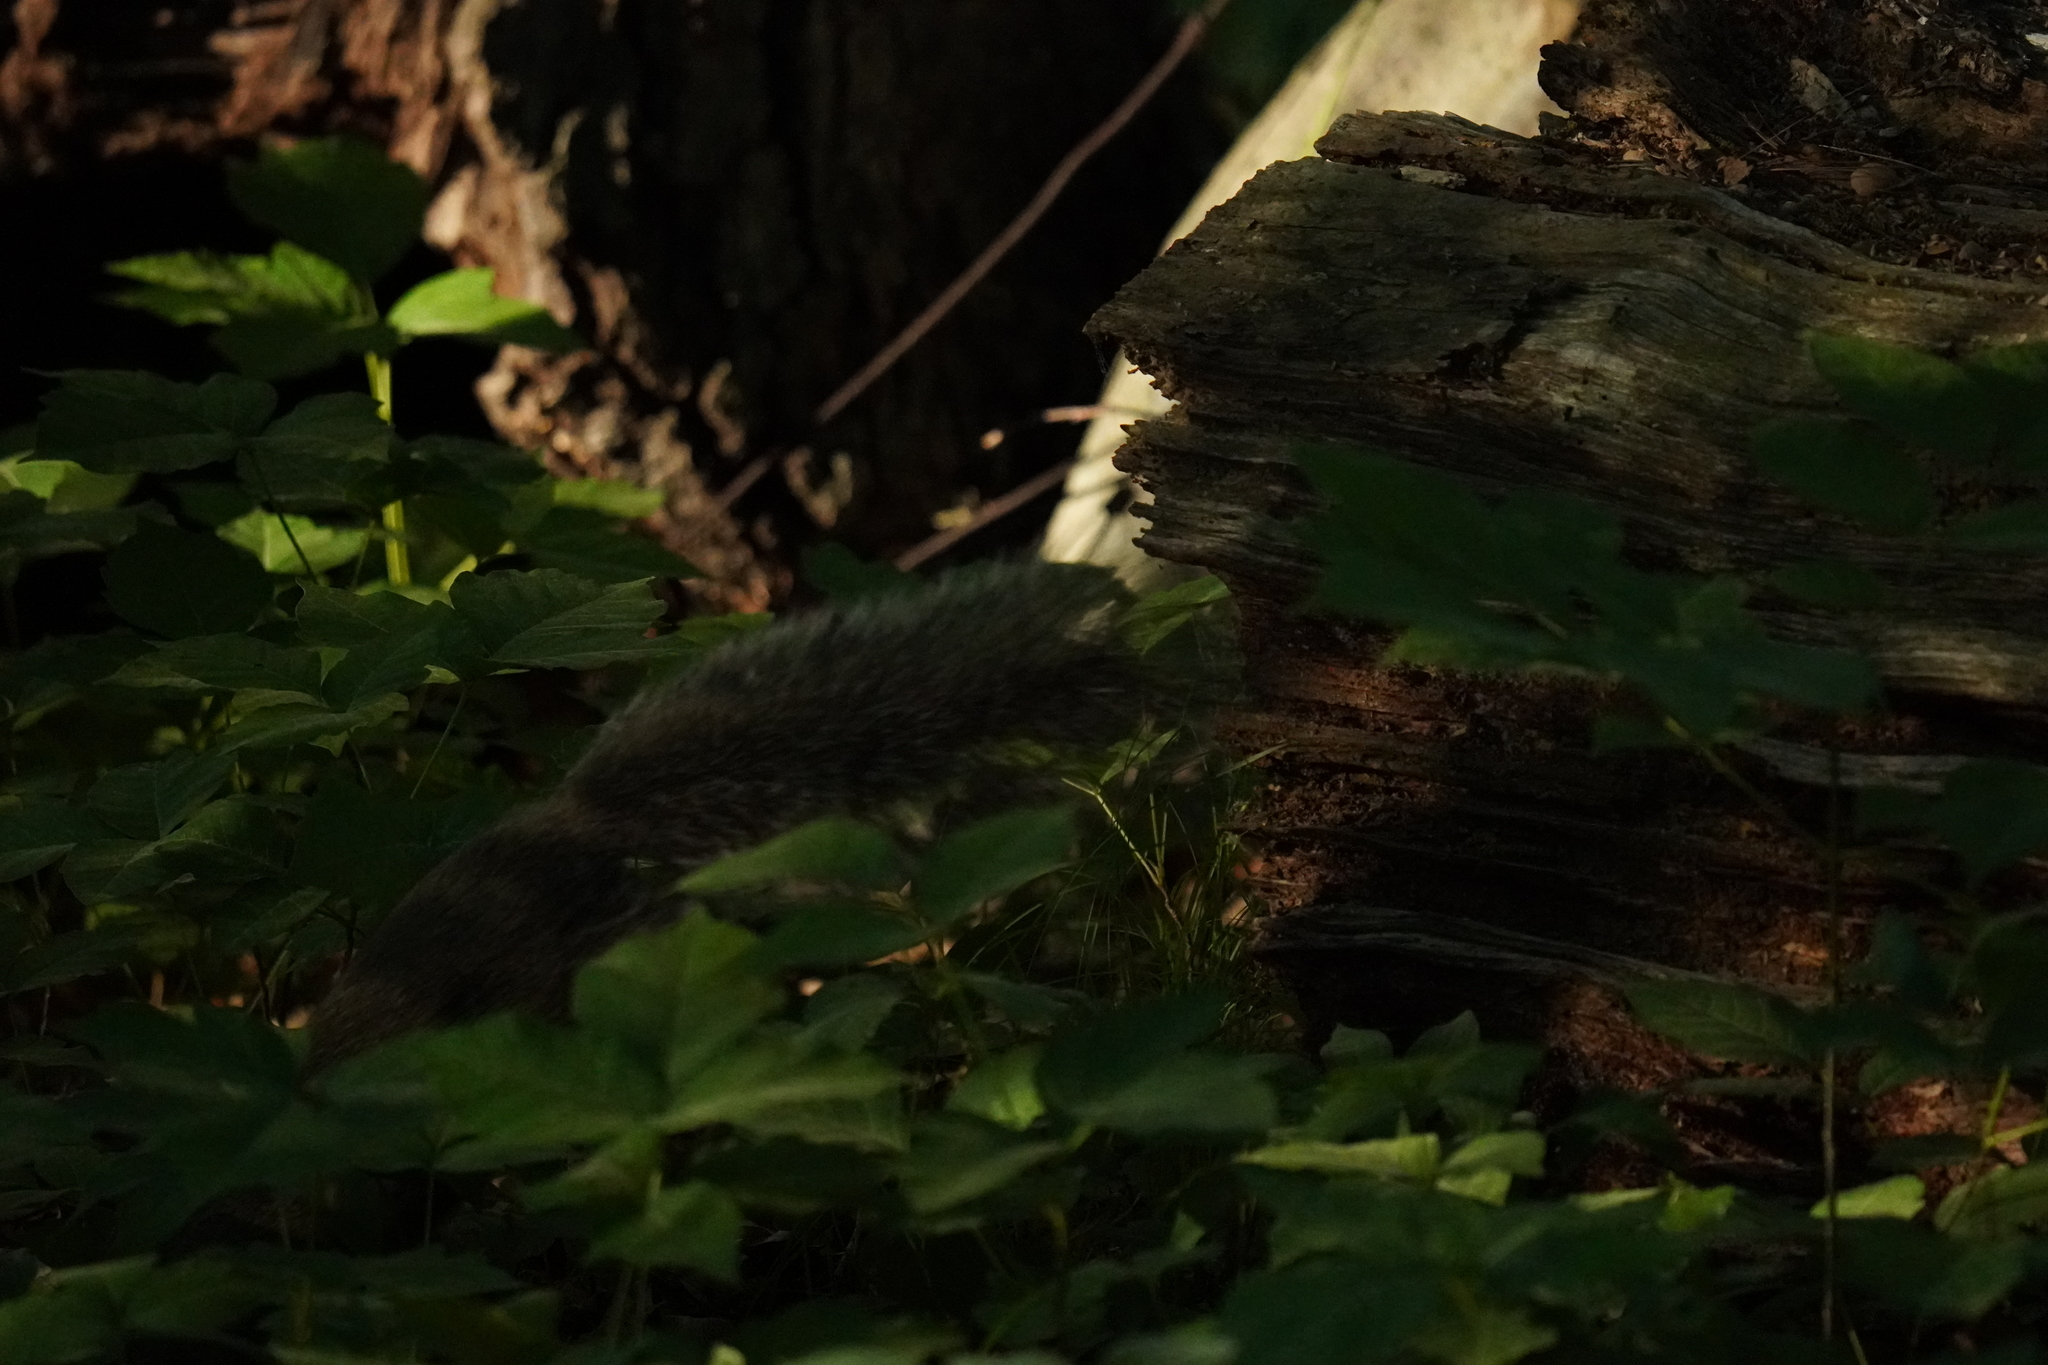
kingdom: Animalia
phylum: Chordata
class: Mammalia
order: Rodentia
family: Sciuridae
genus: Sciurus
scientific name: Sciurus carolinensis
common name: Eastern gray squirrel
